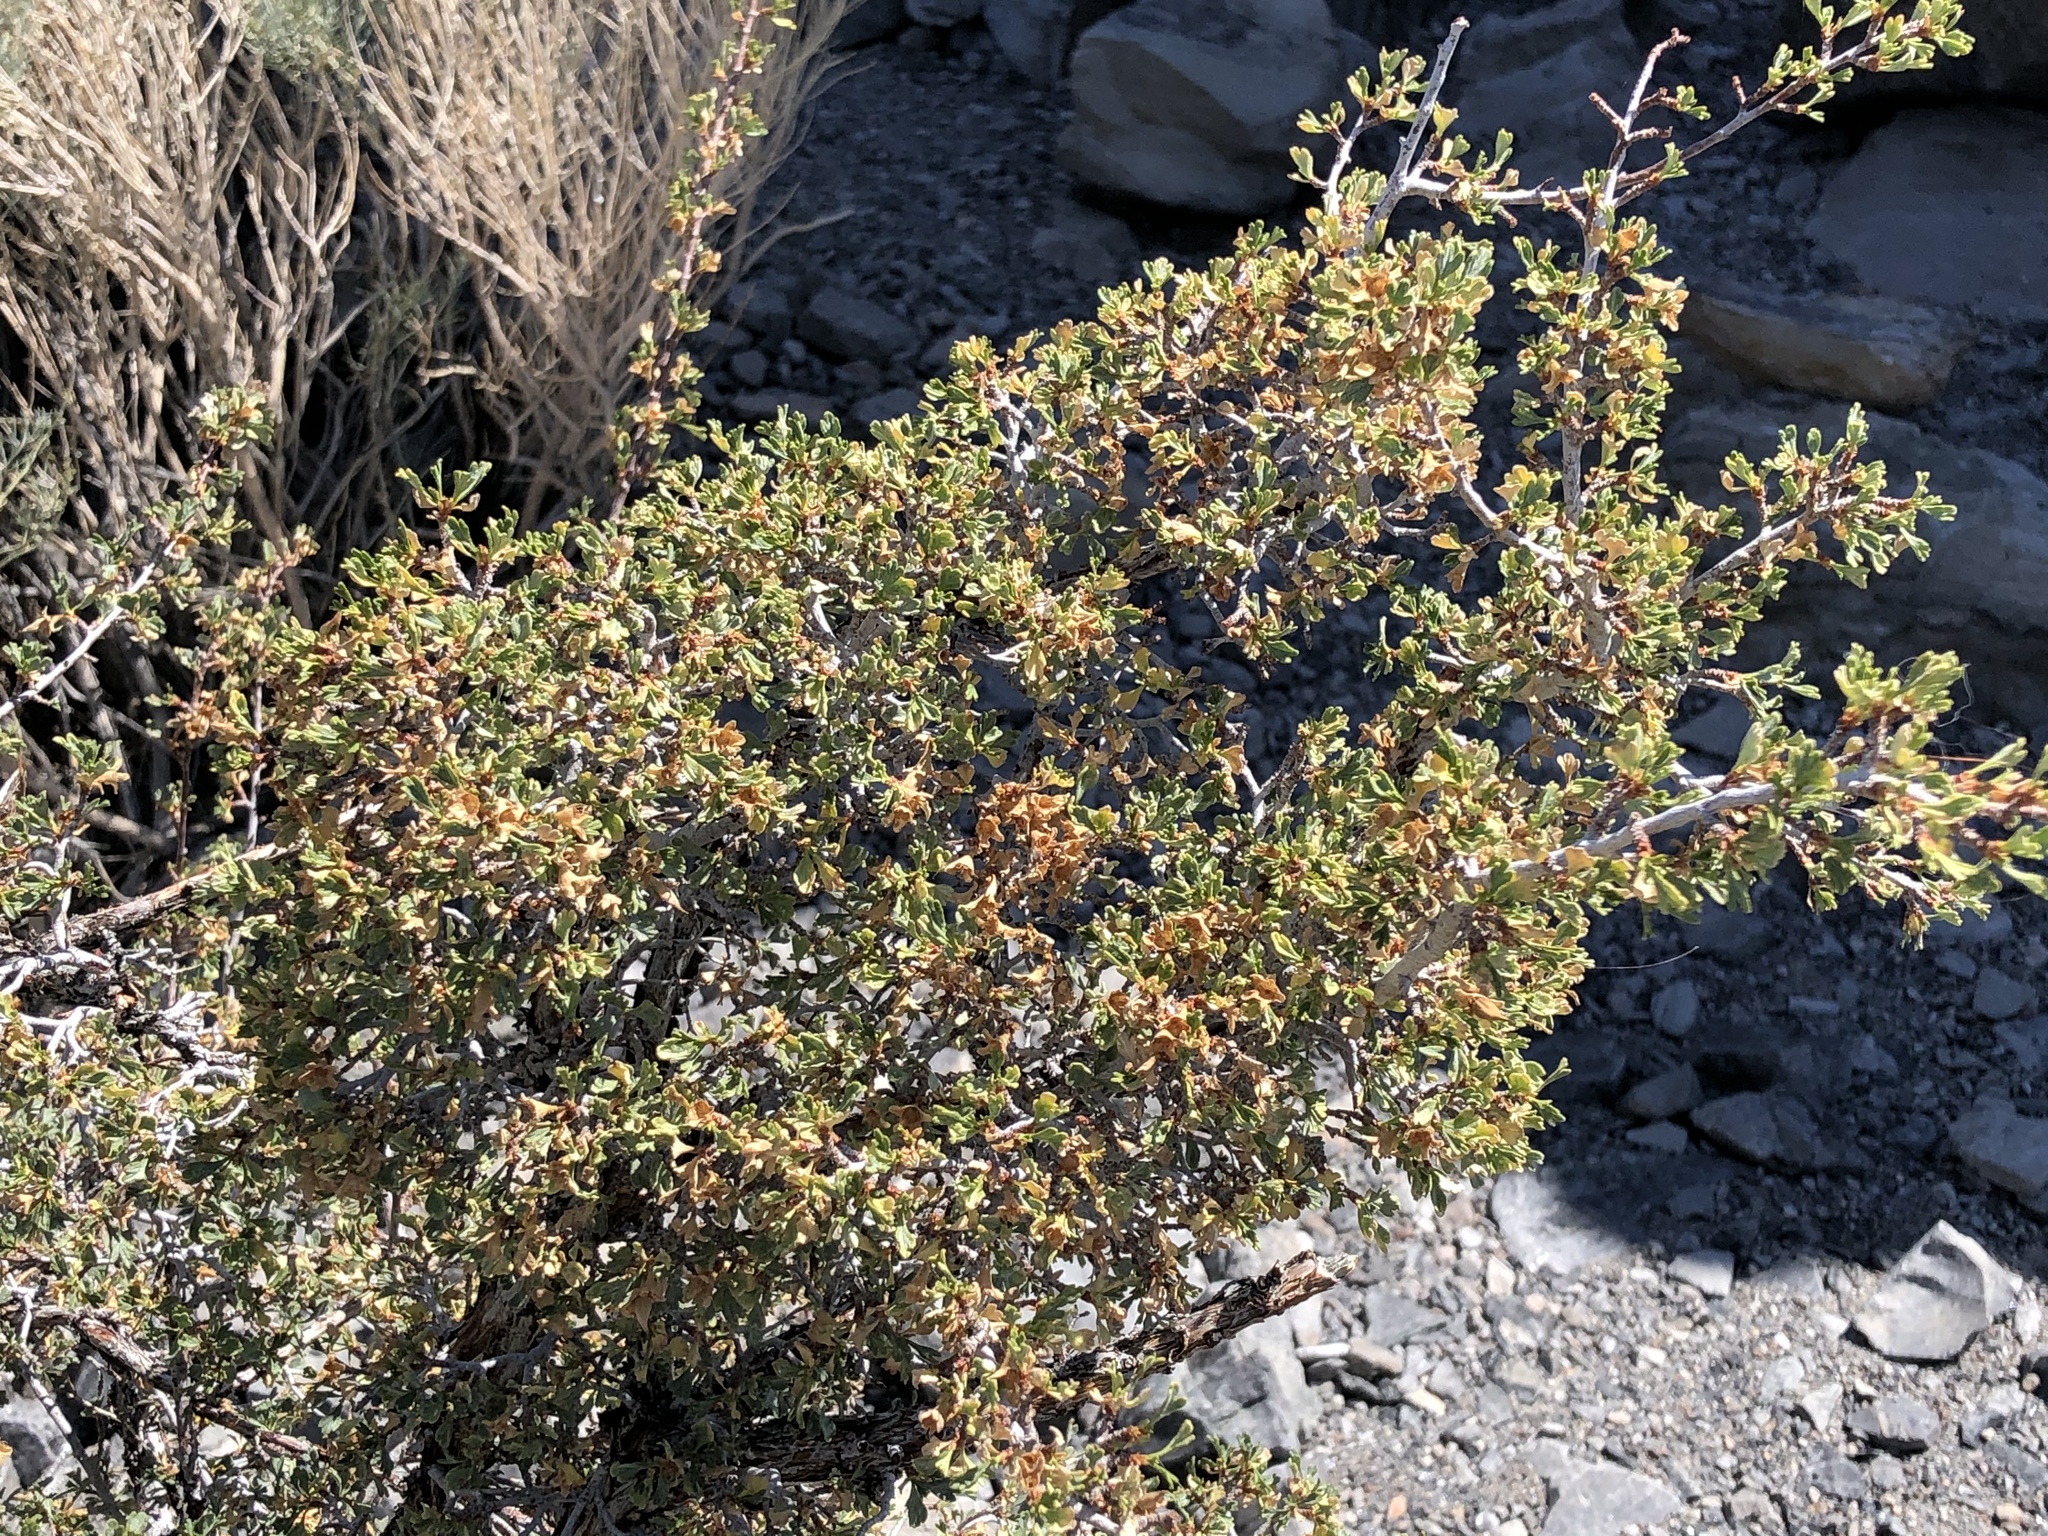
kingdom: Plantae
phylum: Tracheophyta
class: Magnoliopsida
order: Rosales
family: Rosaceae
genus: Purshia
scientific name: Purshia tridentata
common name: Antelope bitterbrush
